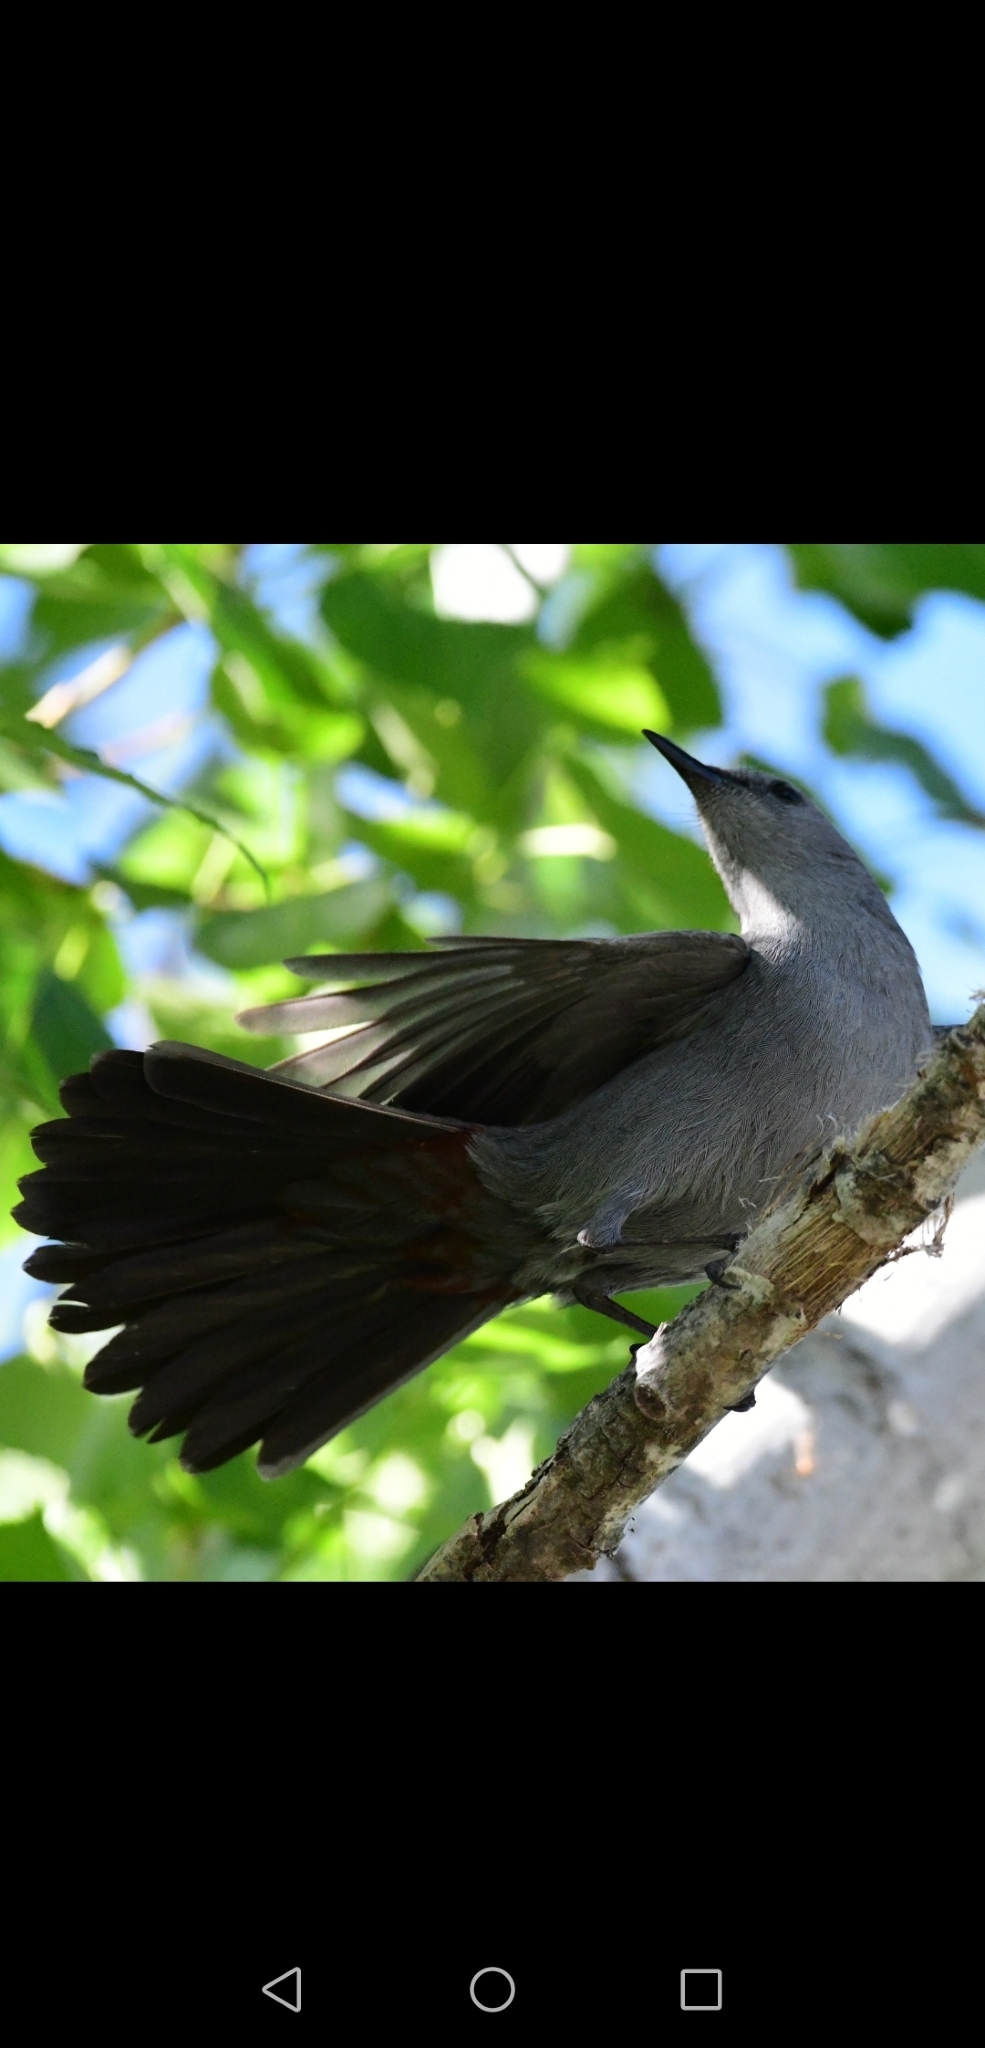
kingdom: Animalia
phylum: Chordata
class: Aves
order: Passeriformes
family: Mimidae
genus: Dumetella
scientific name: Dumetella carolinensis
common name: Gray catbird
